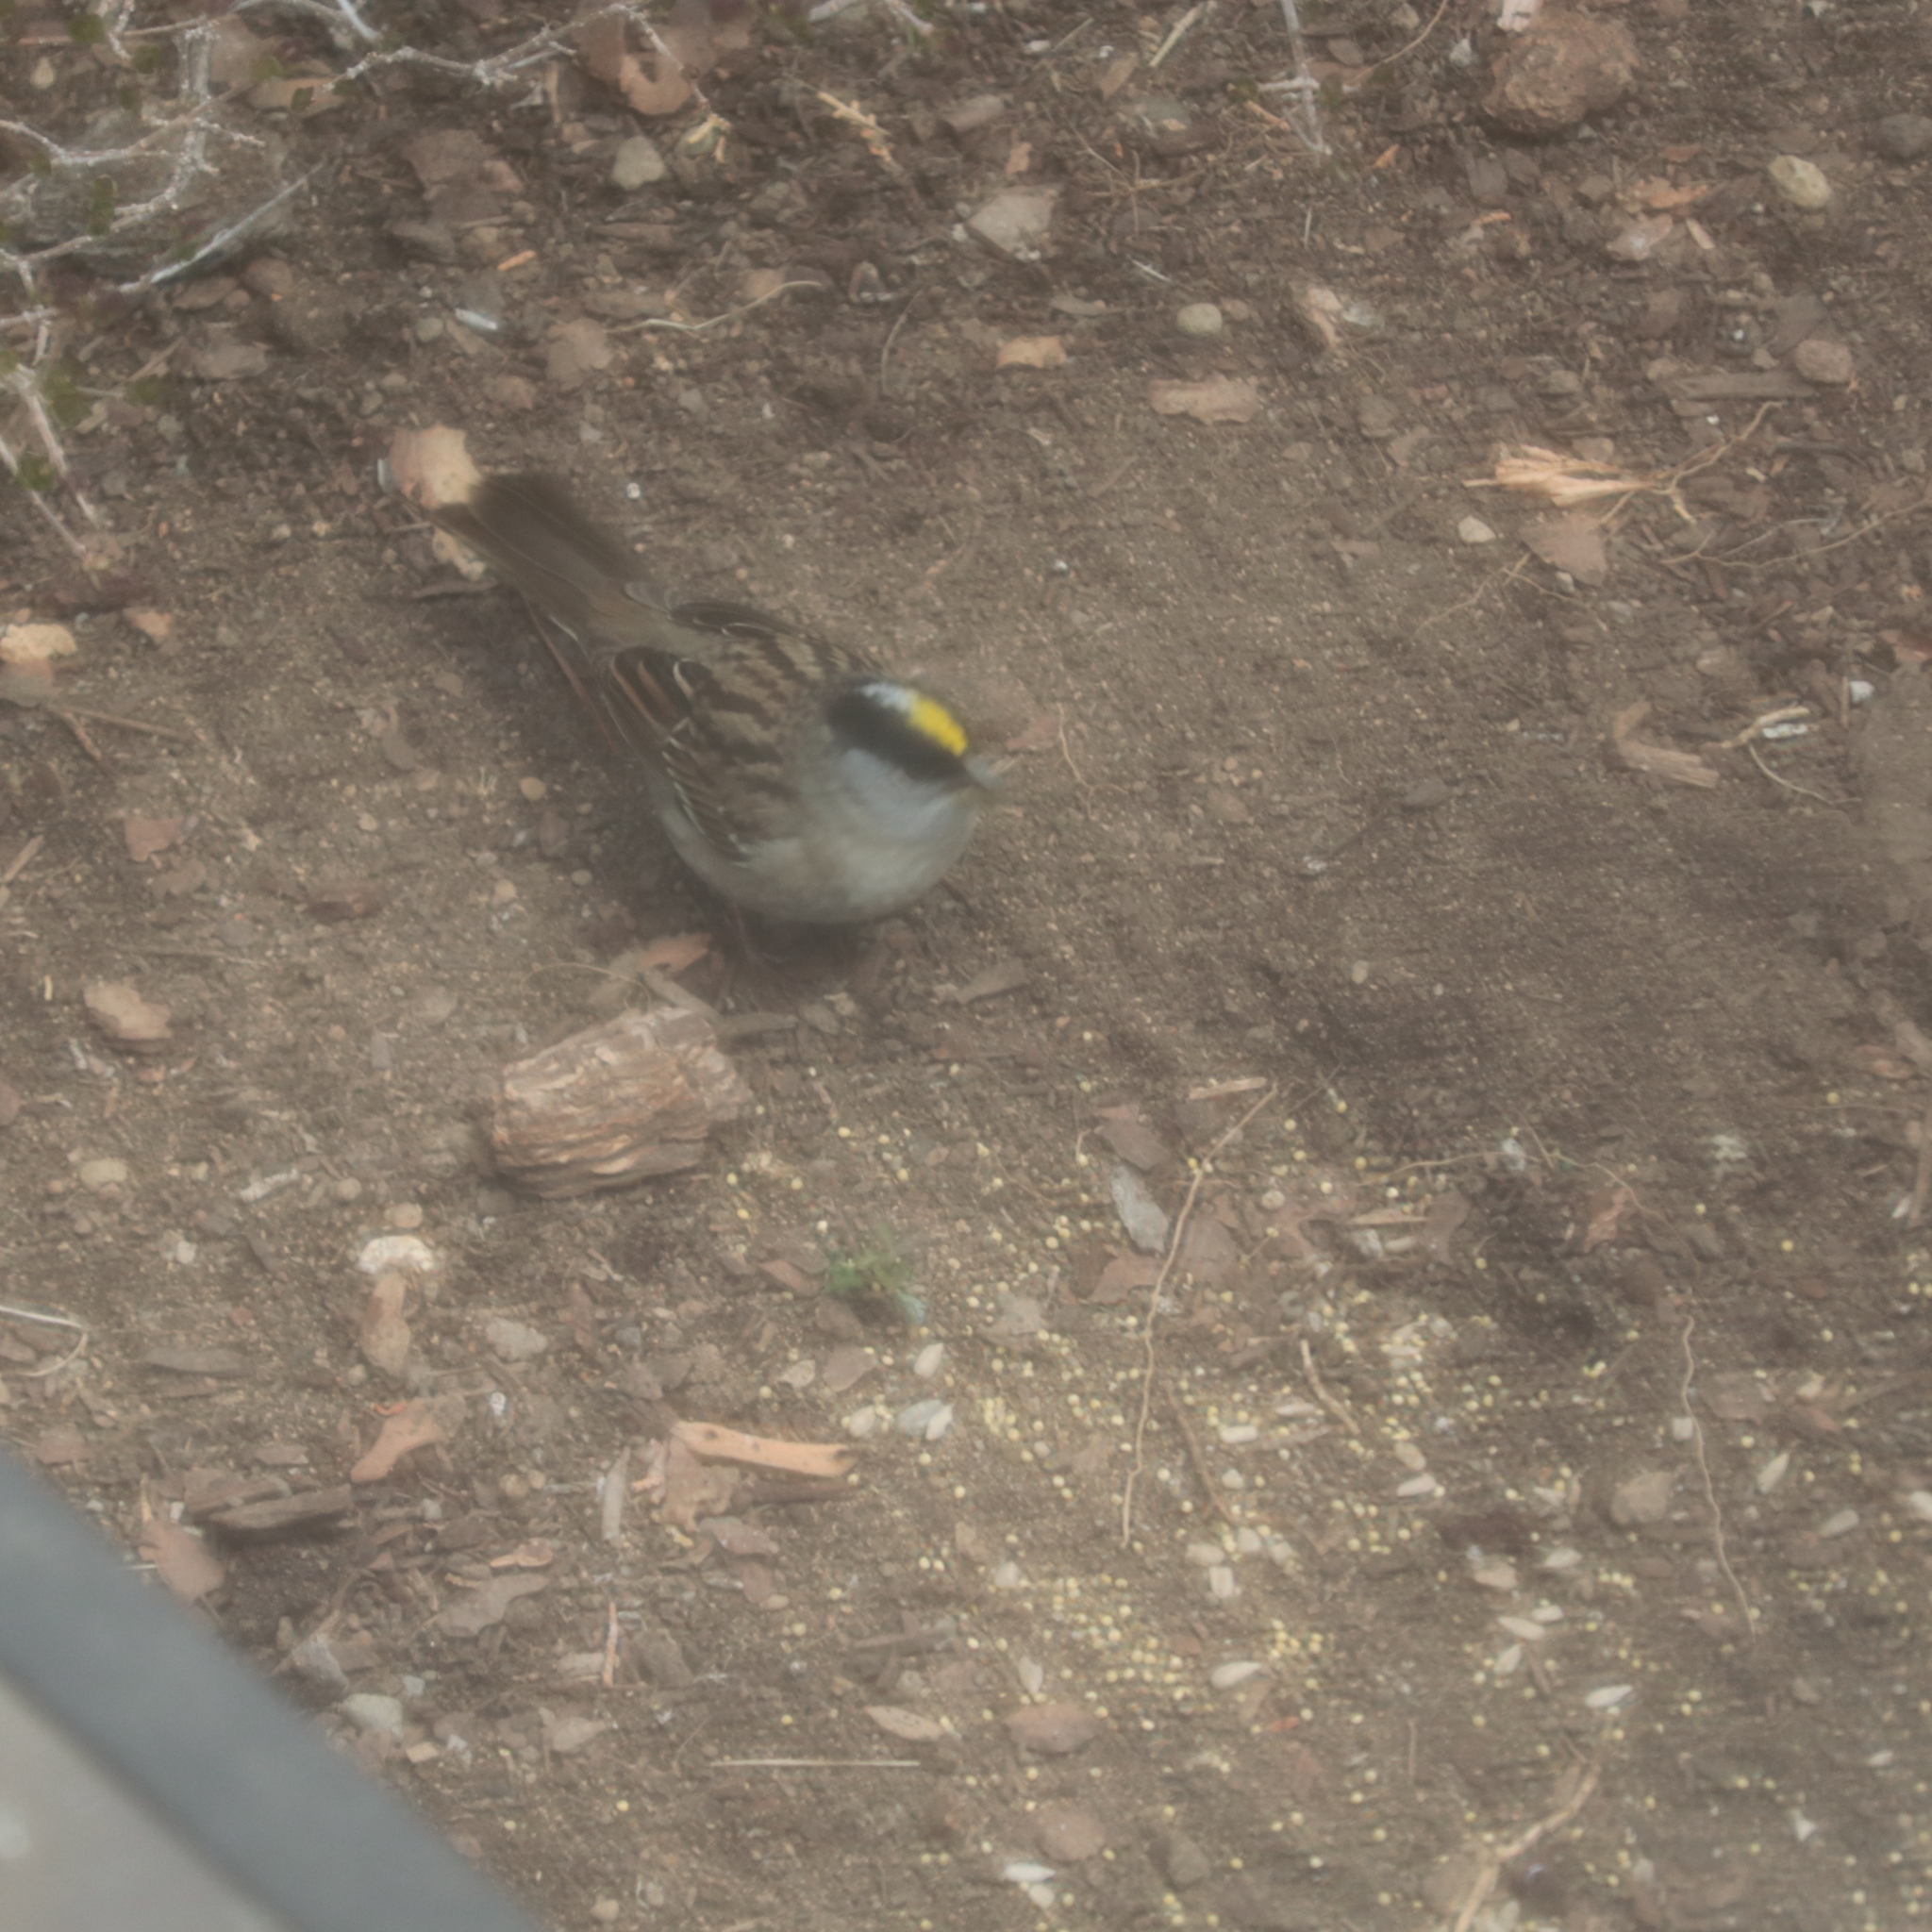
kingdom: Animalia
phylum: Chordata
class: Aves
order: Passeriformes
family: Passerellidae
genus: Zonotrichia
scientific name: Zonotrichia atricapilla
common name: Golden-crowned sparrow
